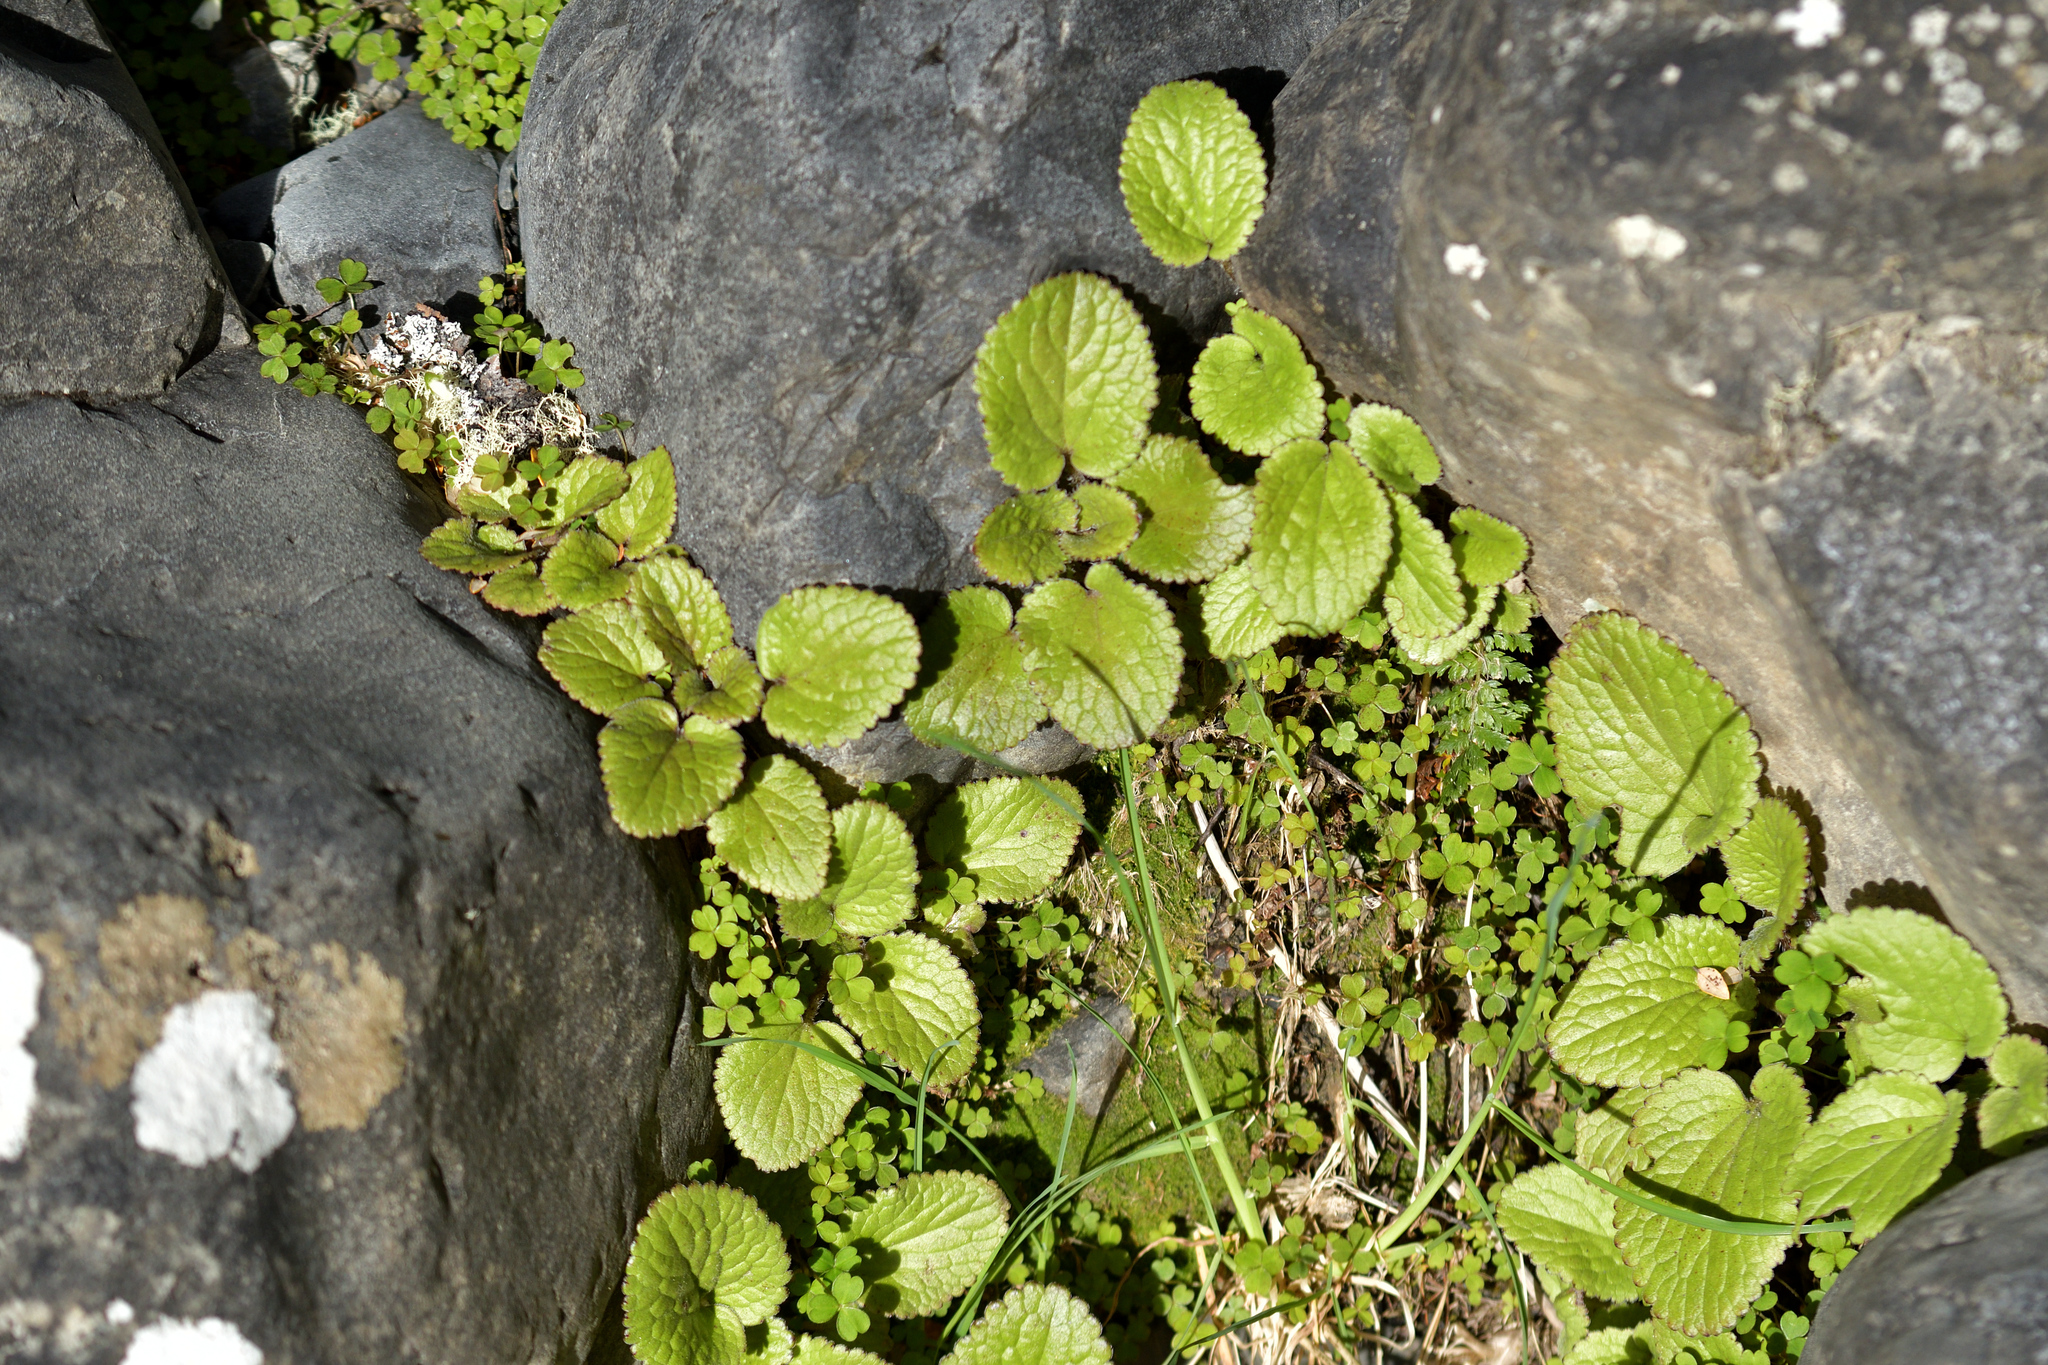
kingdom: Plantae
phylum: Tracheophyta
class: Magnoliopsida
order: Lamiales
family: Plantaginaceae
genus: Ourisia
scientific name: Ourisia macrophylla
